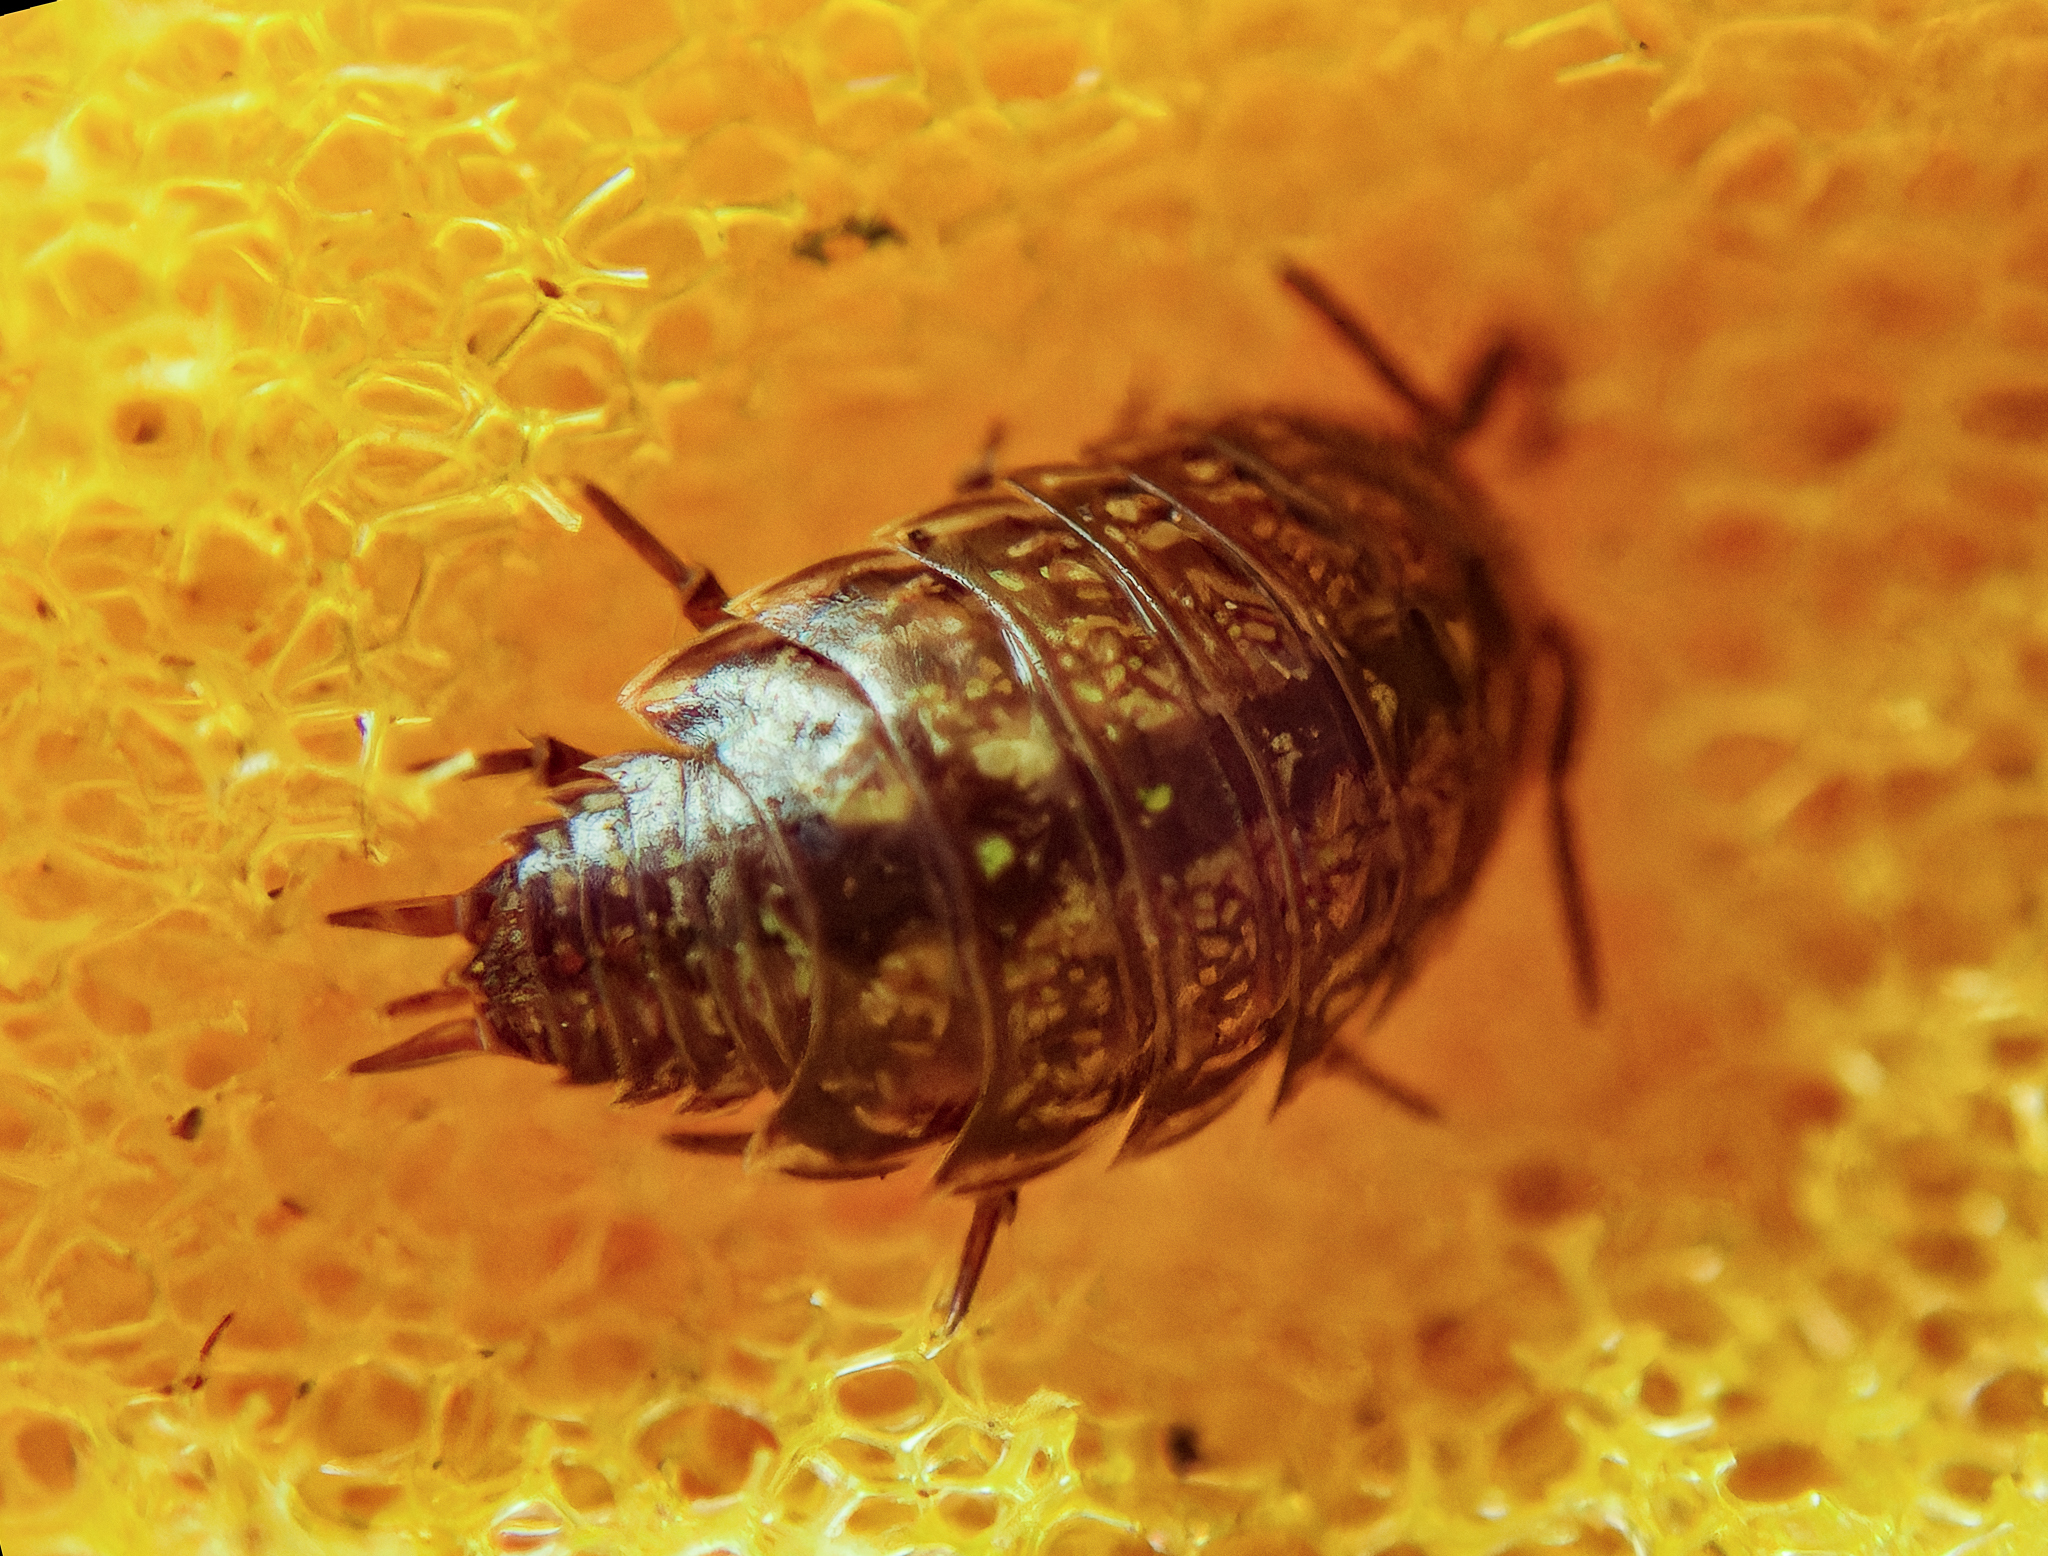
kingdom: Animalia
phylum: Arthropoda
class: Malacostraca
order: Isopoda
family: Philosciidae
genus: Philoscia
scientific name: Philoscia muscorum
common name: Common striped woodlouse
